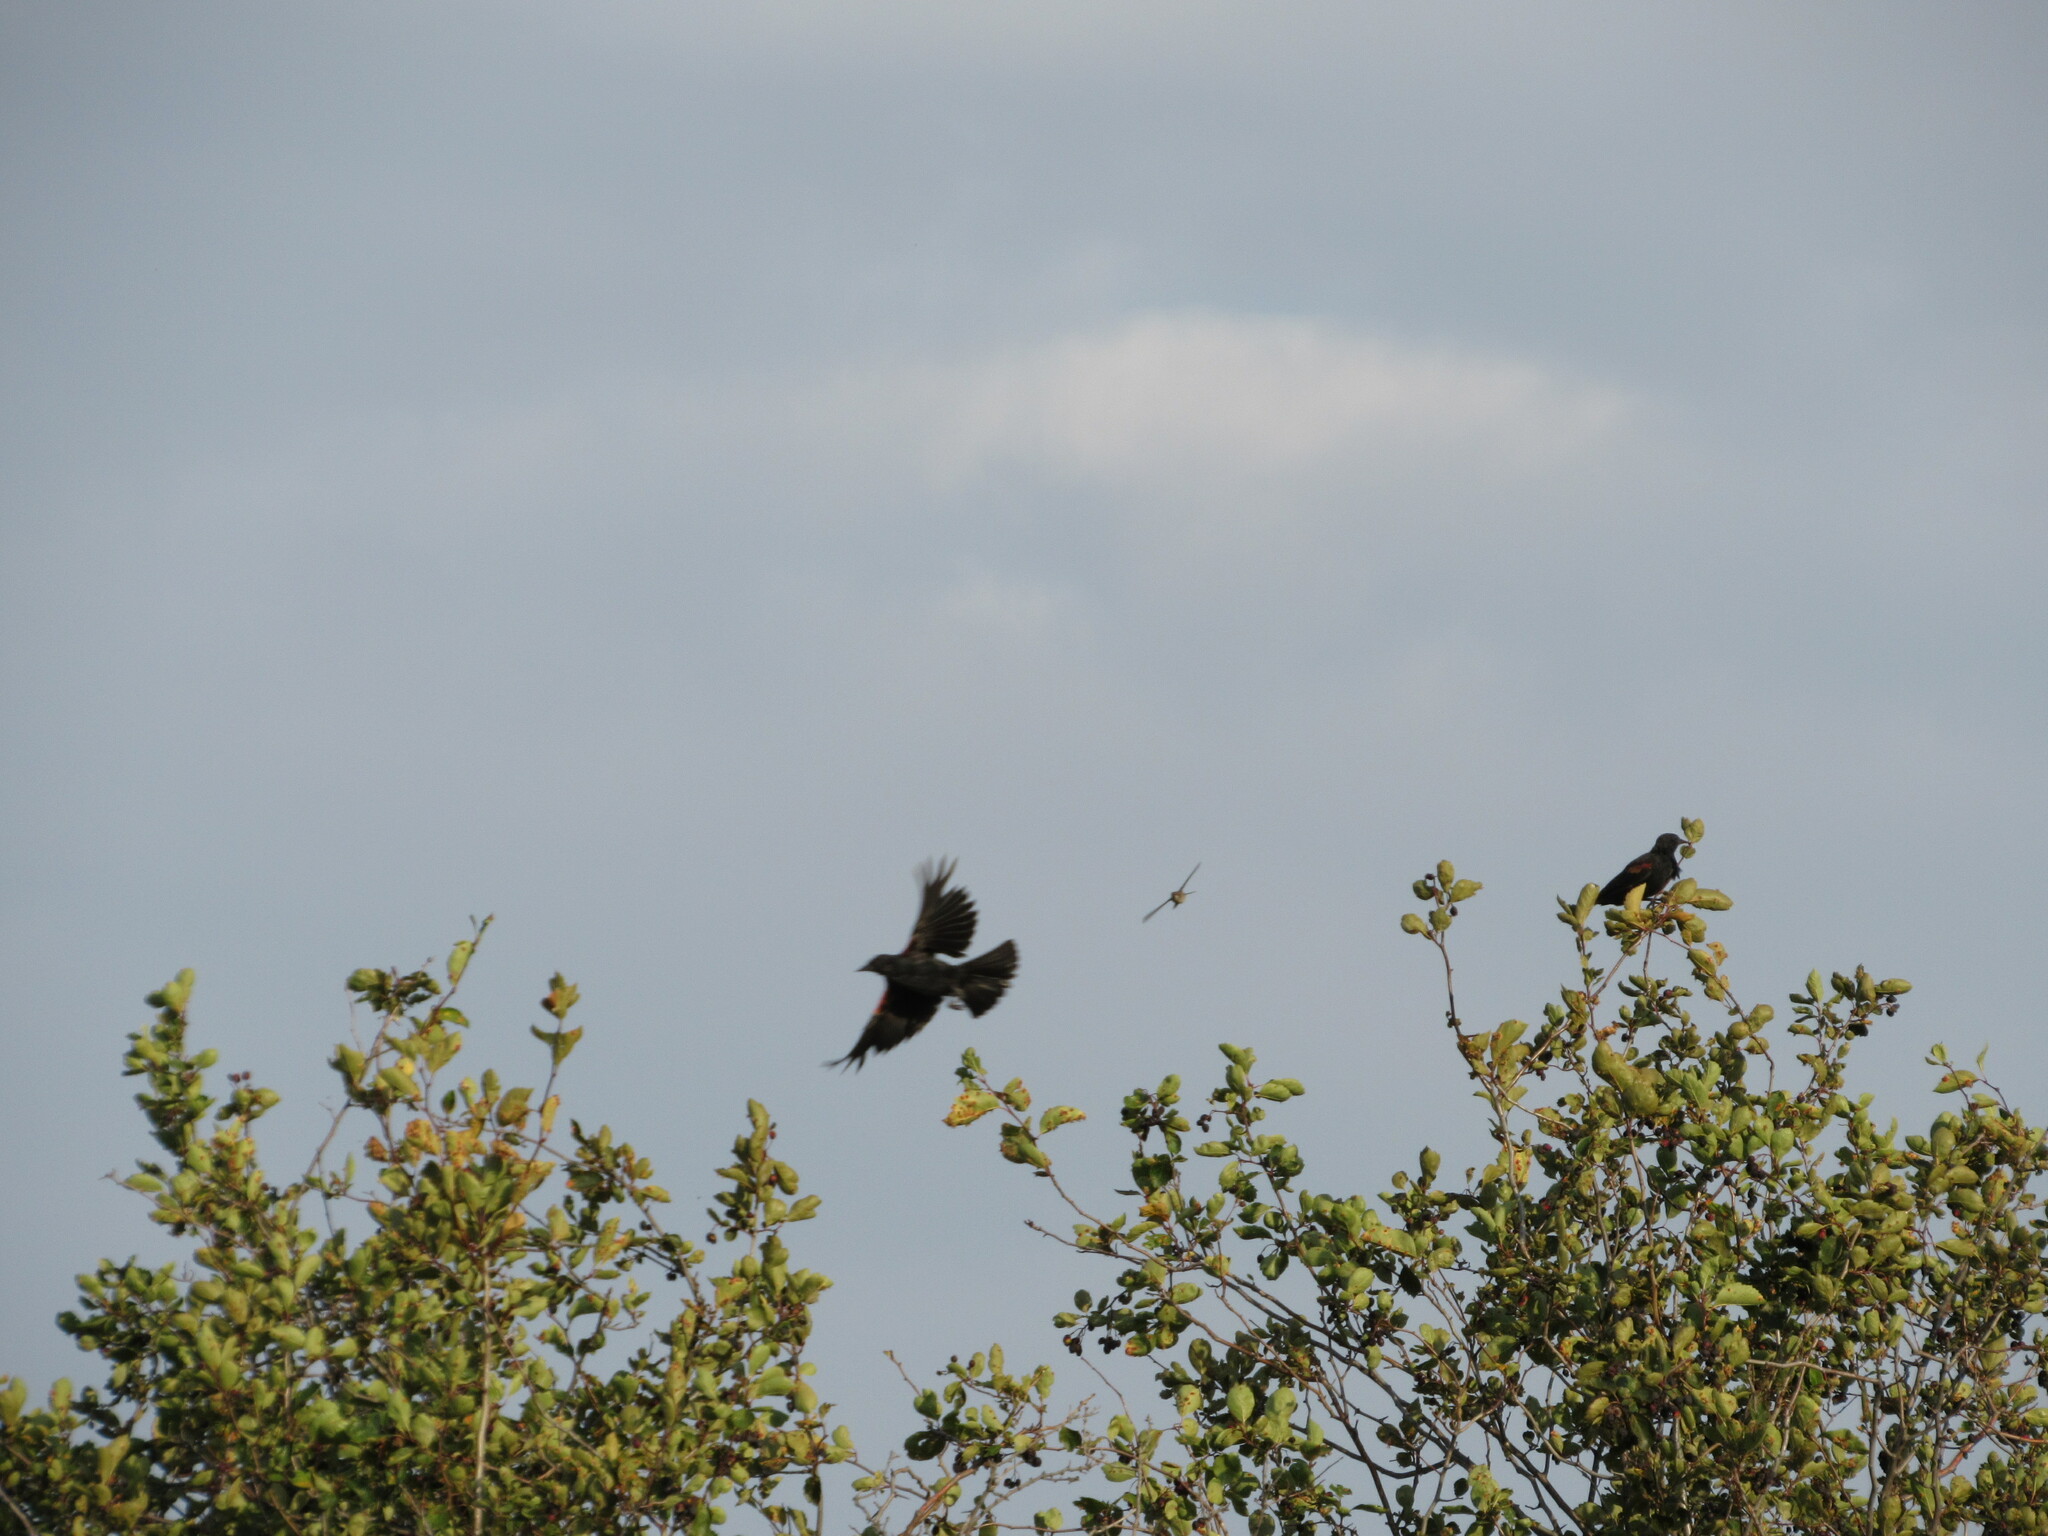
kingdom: Animalia
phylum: Chordata
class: Aves
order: Passeriformes
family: Icteridae
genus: Agelaius
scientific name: Agelaius phoeniceus
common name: Red-winged blackbird
